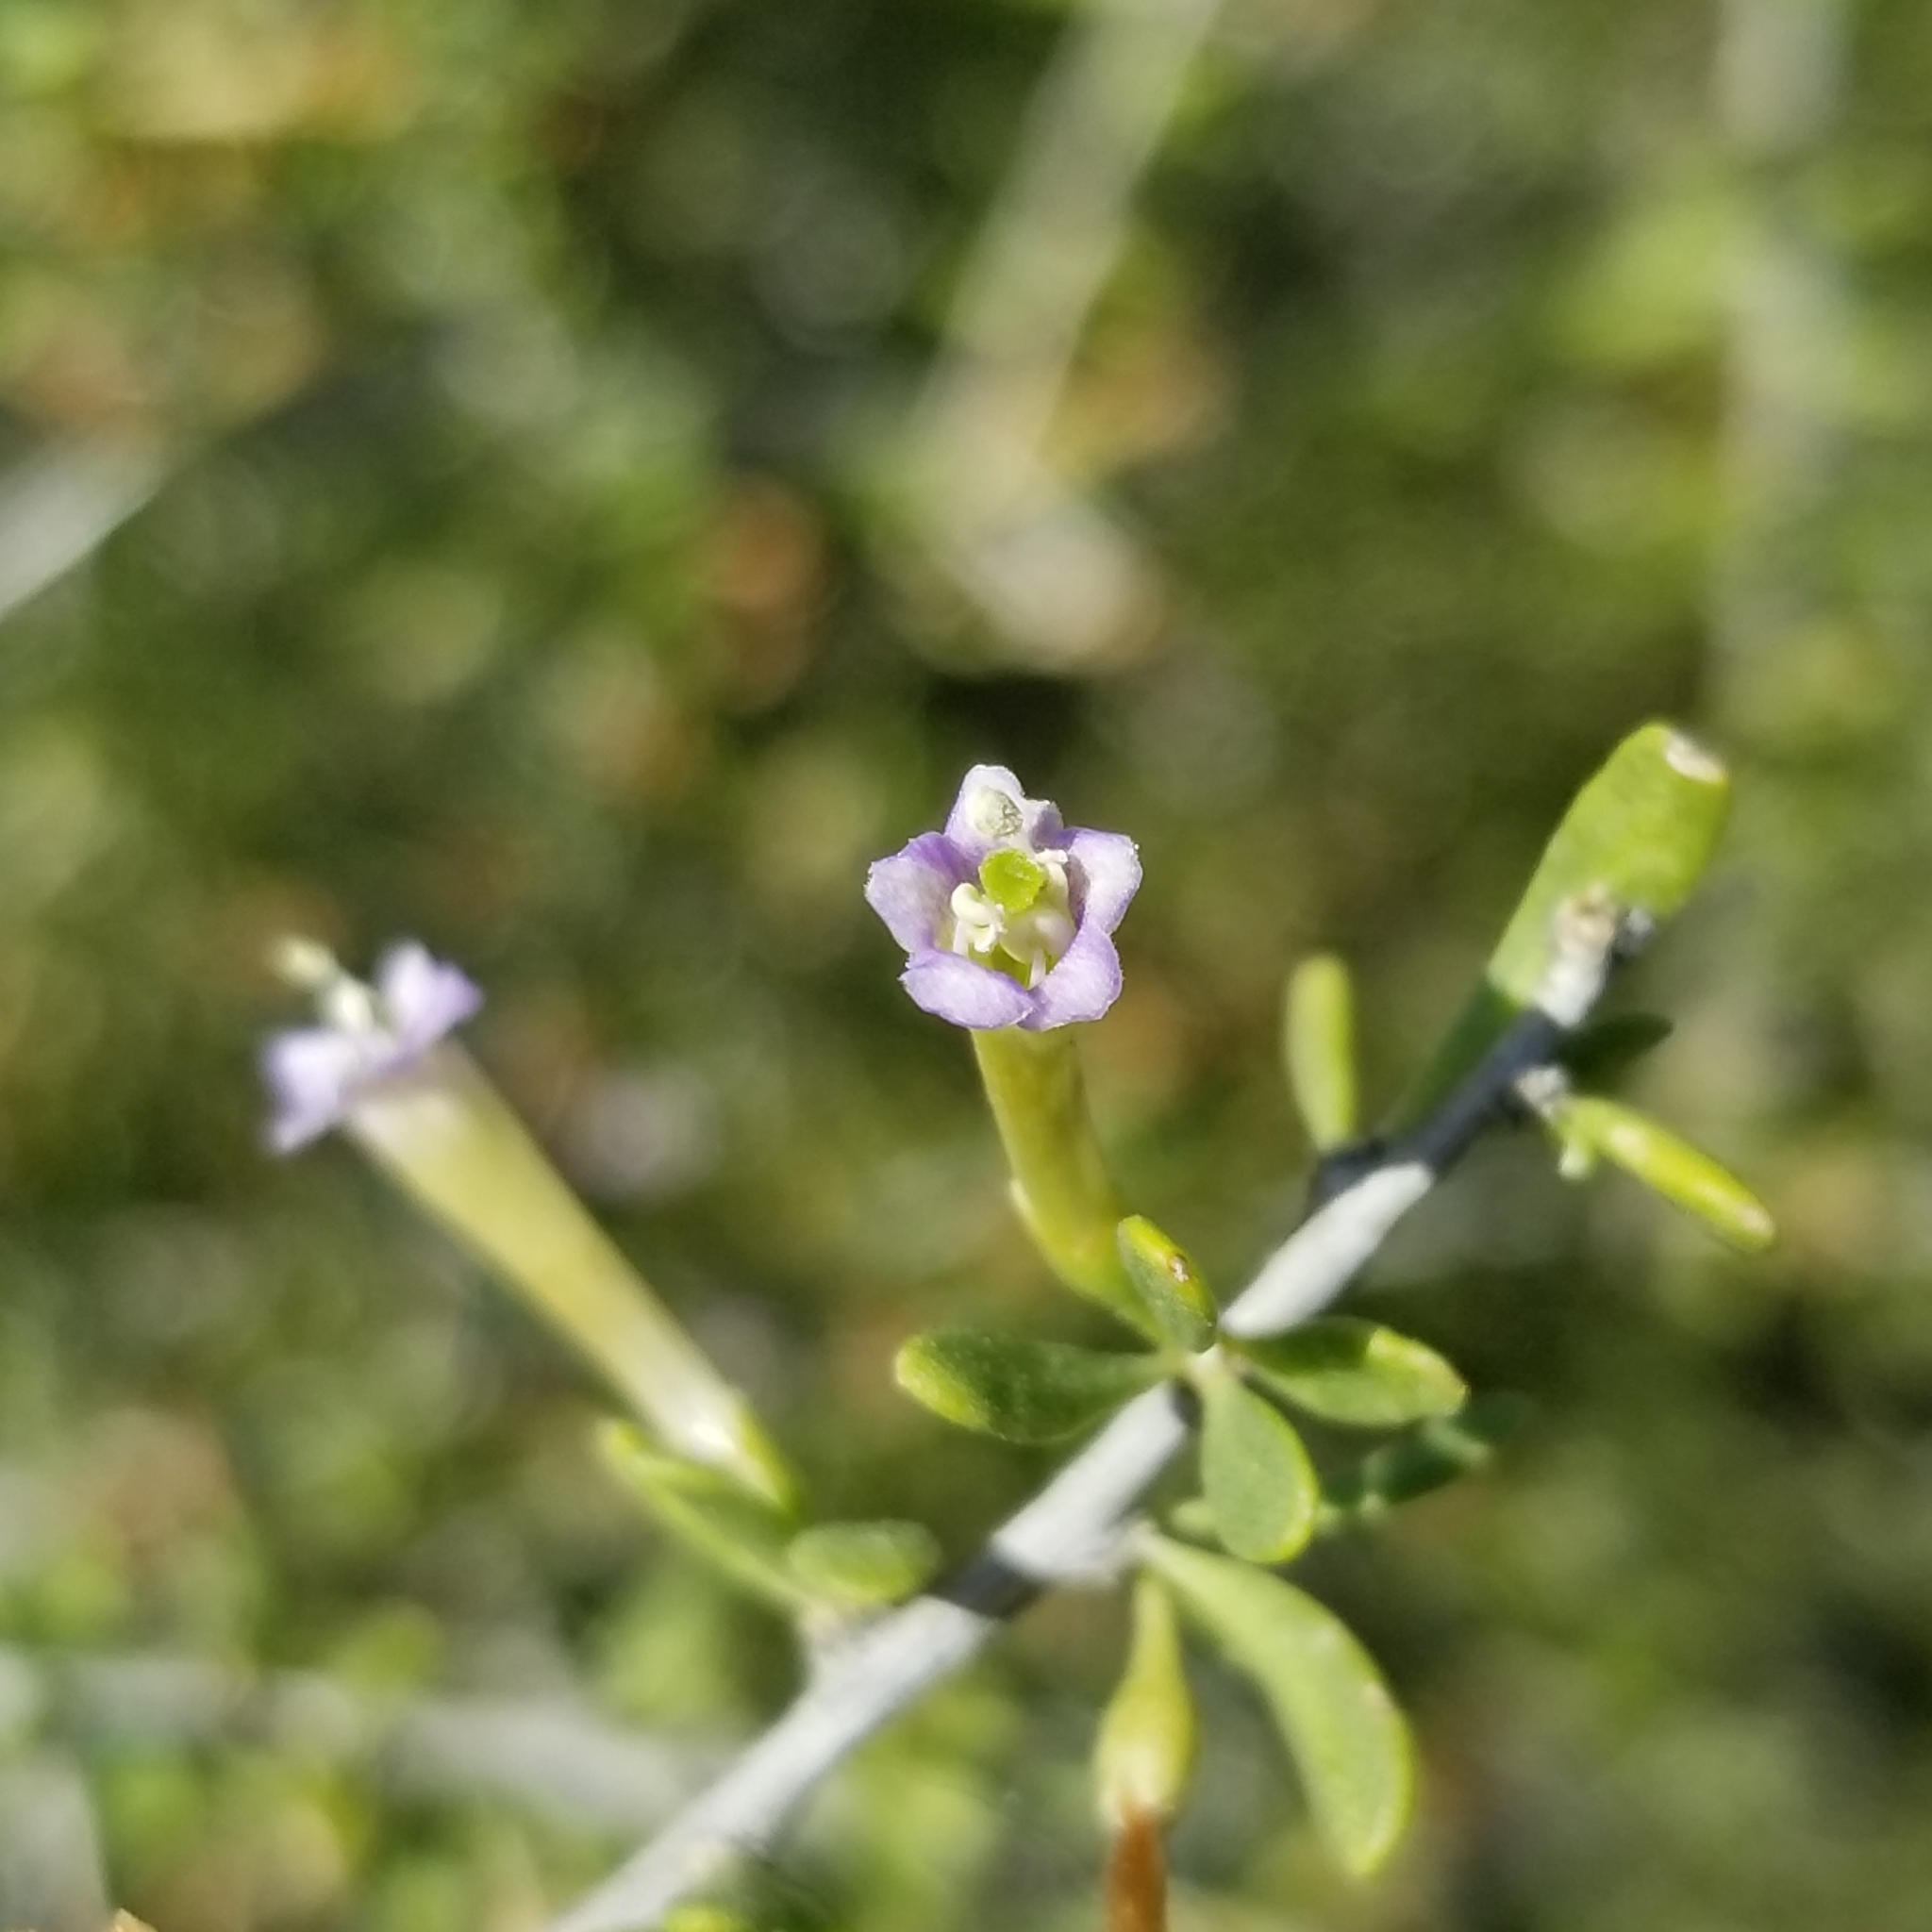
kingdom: Plantae
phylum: Tracheophyta
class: Magnoliopsida
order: Solanales
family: Solanaceae
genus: Lycium
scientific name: Lycium andersonii
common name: Water-jacket
